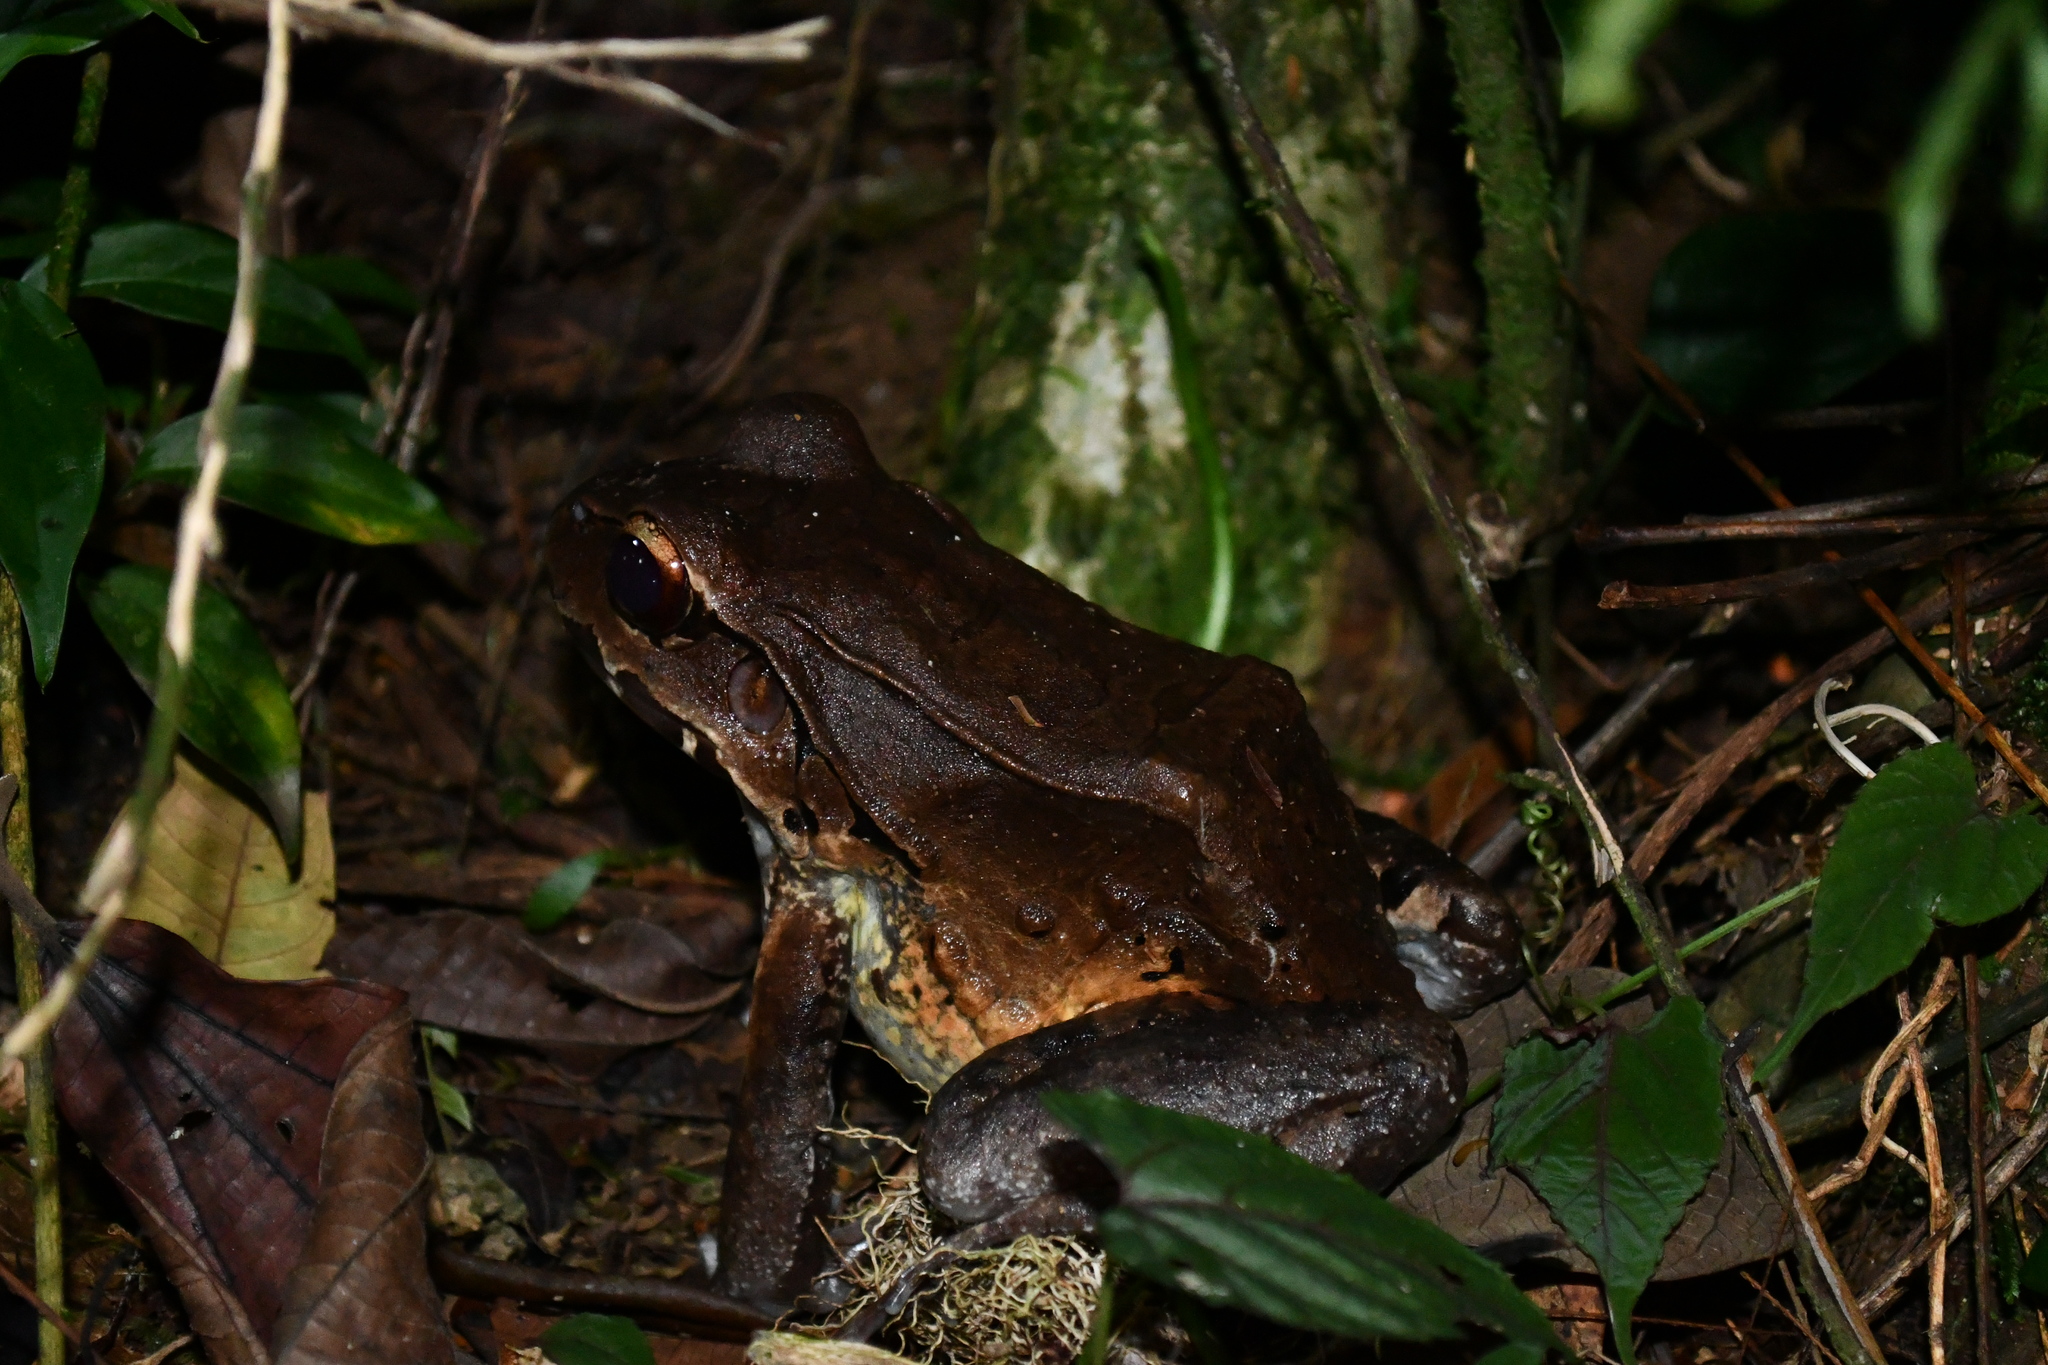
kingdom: Animalia
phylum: Chordata
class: Amphibia
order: Anura
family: Leptodactylidae
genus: Leptodactylus
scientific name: Leptodactylus savagei
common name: Savage's thin-toed frog
